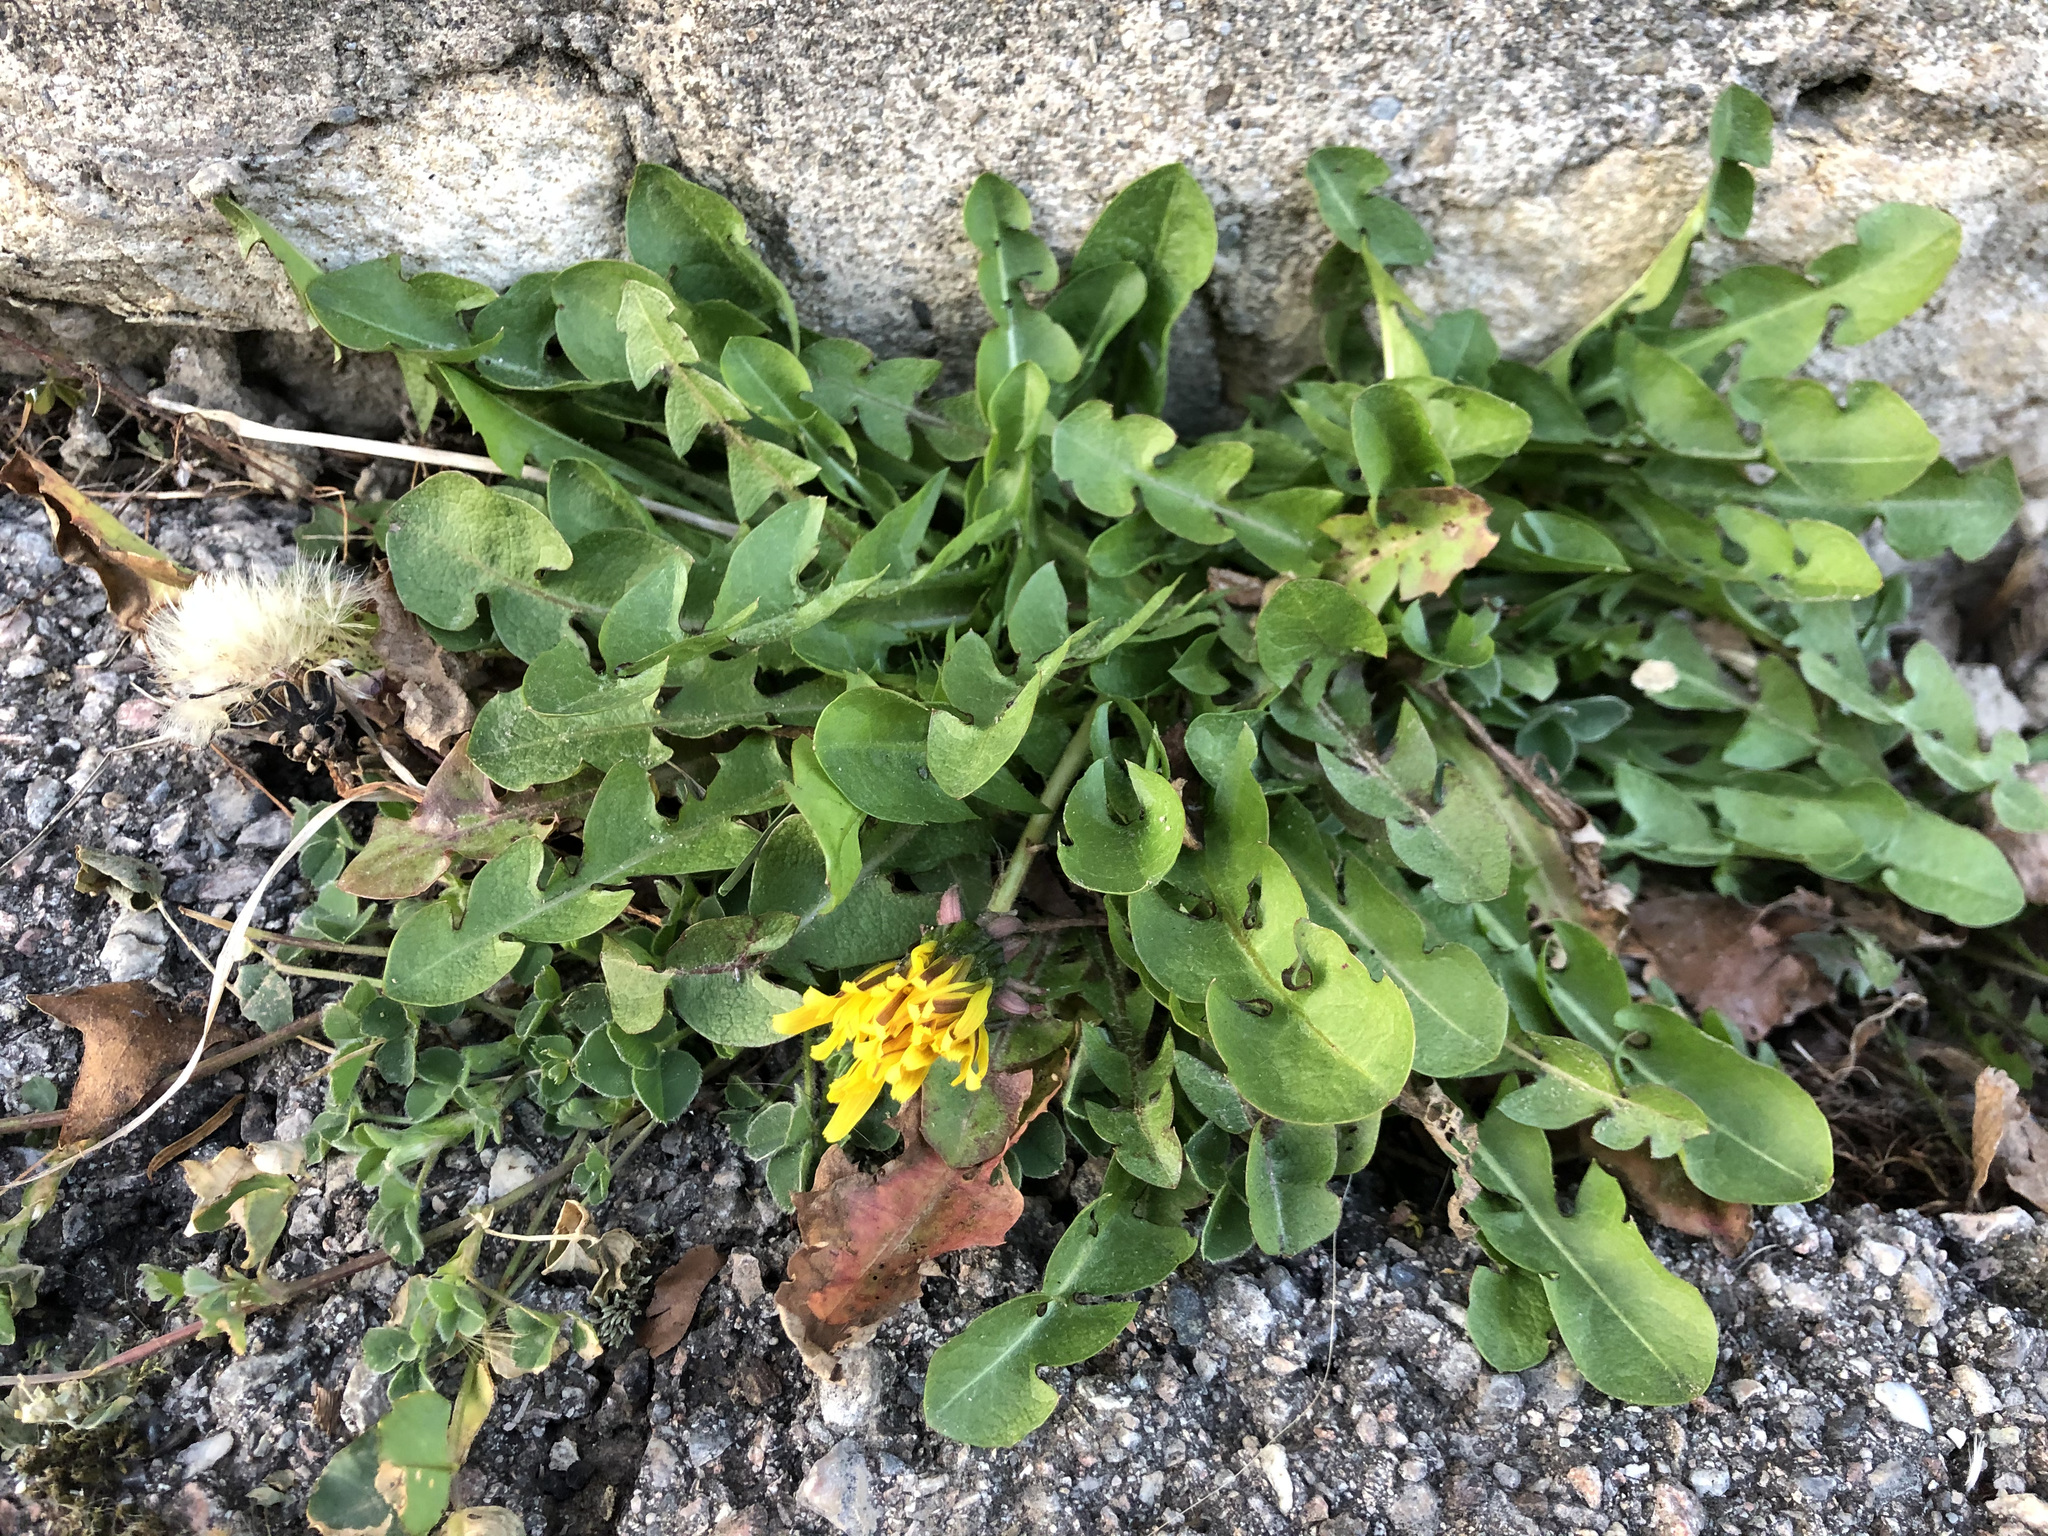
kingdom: Plantae
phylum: Tracheophyta
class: Magnoliopsida
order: Asterales
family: Asteraceae
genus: Taraxacum
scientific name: Taraxacum officinale
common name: Common dandelion
